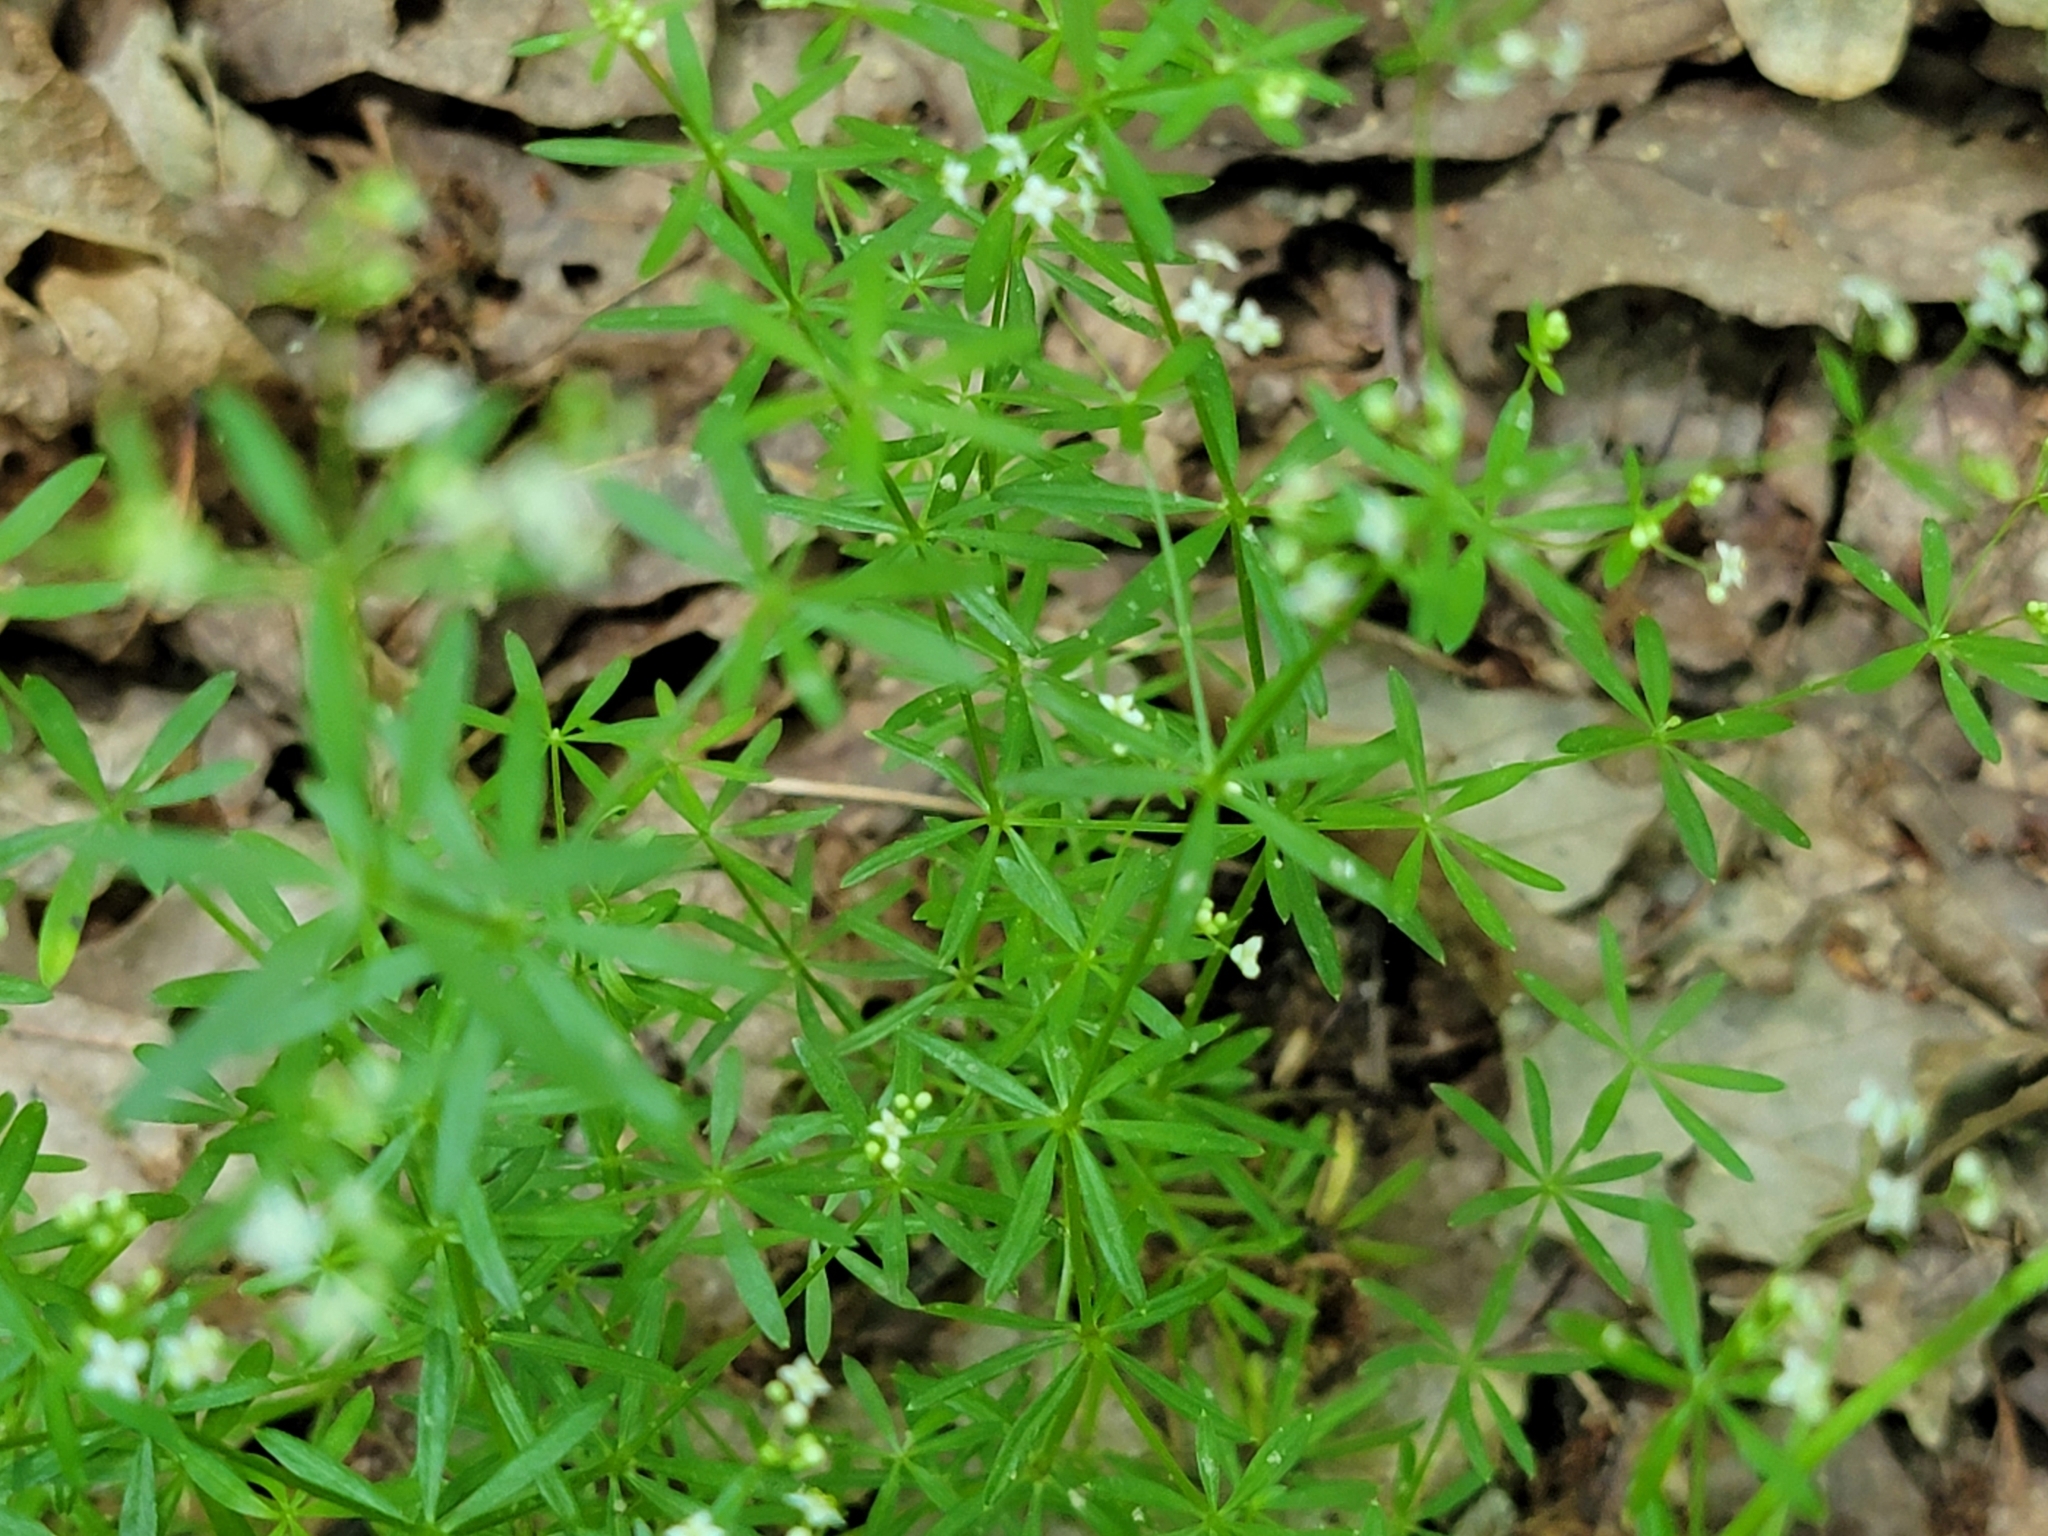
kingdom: Plantae
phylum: Tracheophyta
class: Magnoliopsida
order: Gentianales
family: Rubiaceae
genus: Galium
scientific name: Galium concinnum
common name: Shining bedstraw
